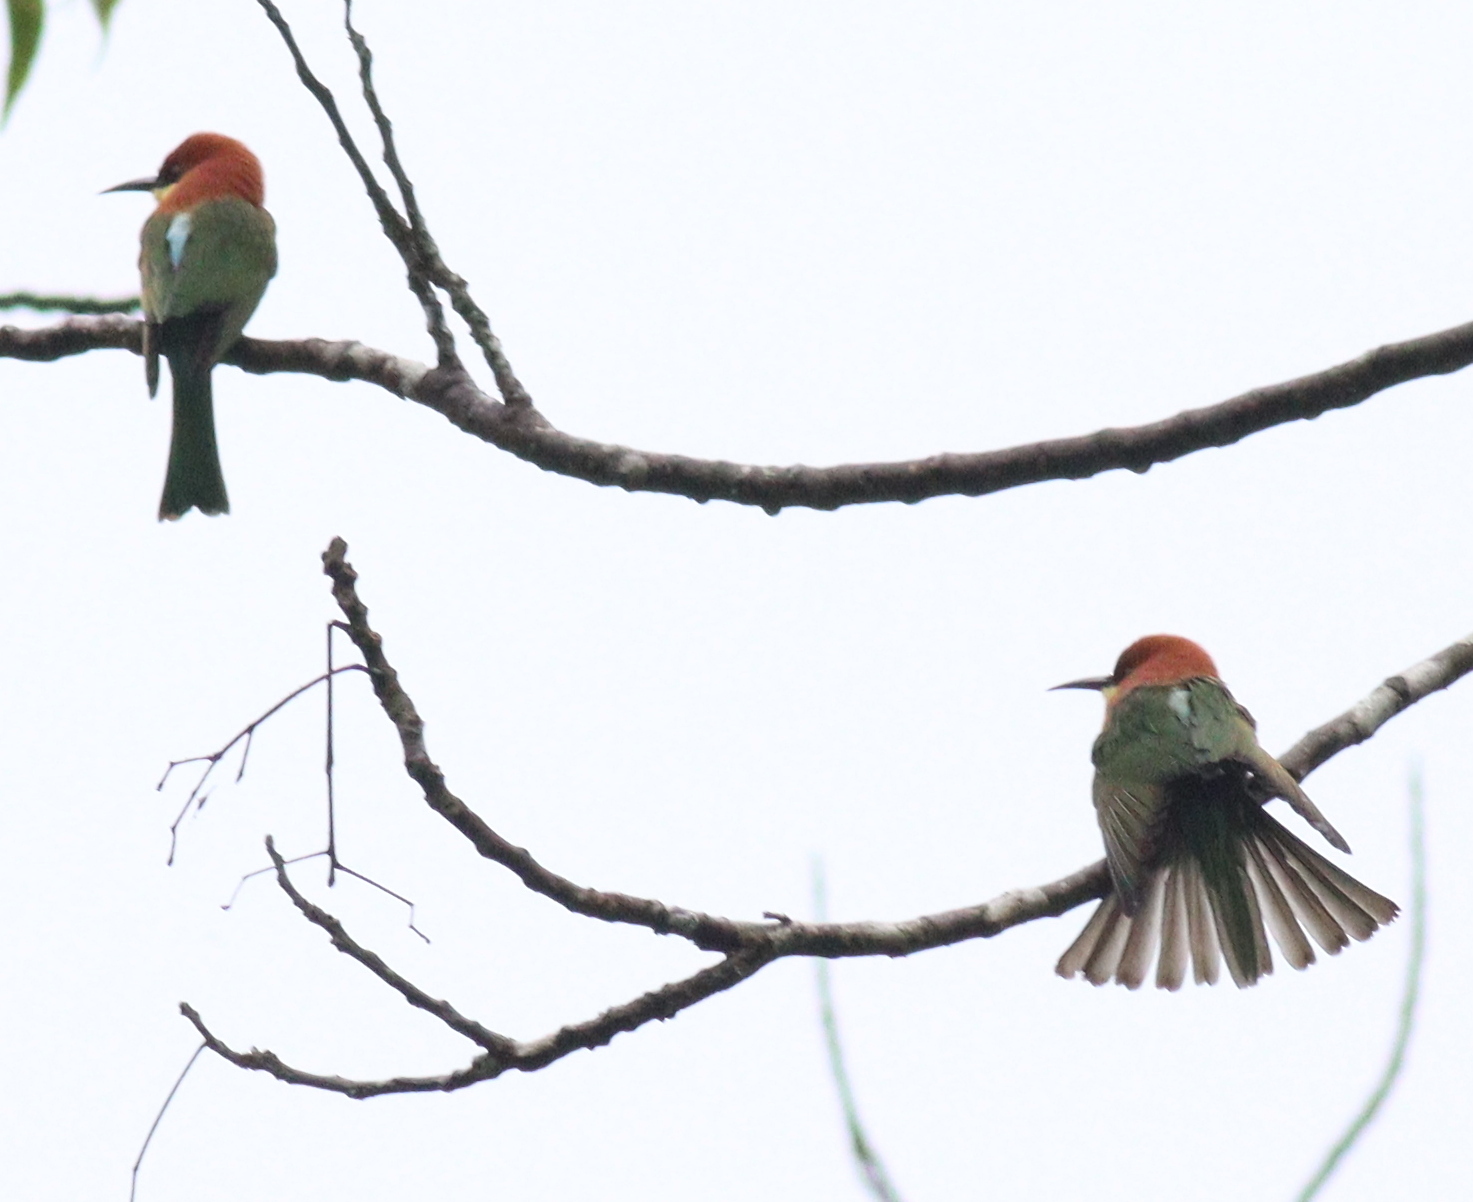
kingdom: Animalia
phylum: Chordata
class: Aves
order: Coraciiformes
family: Meropidae
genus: Merops
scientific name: Merops leschenaulti
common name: Chestnut-headed bee-eater
